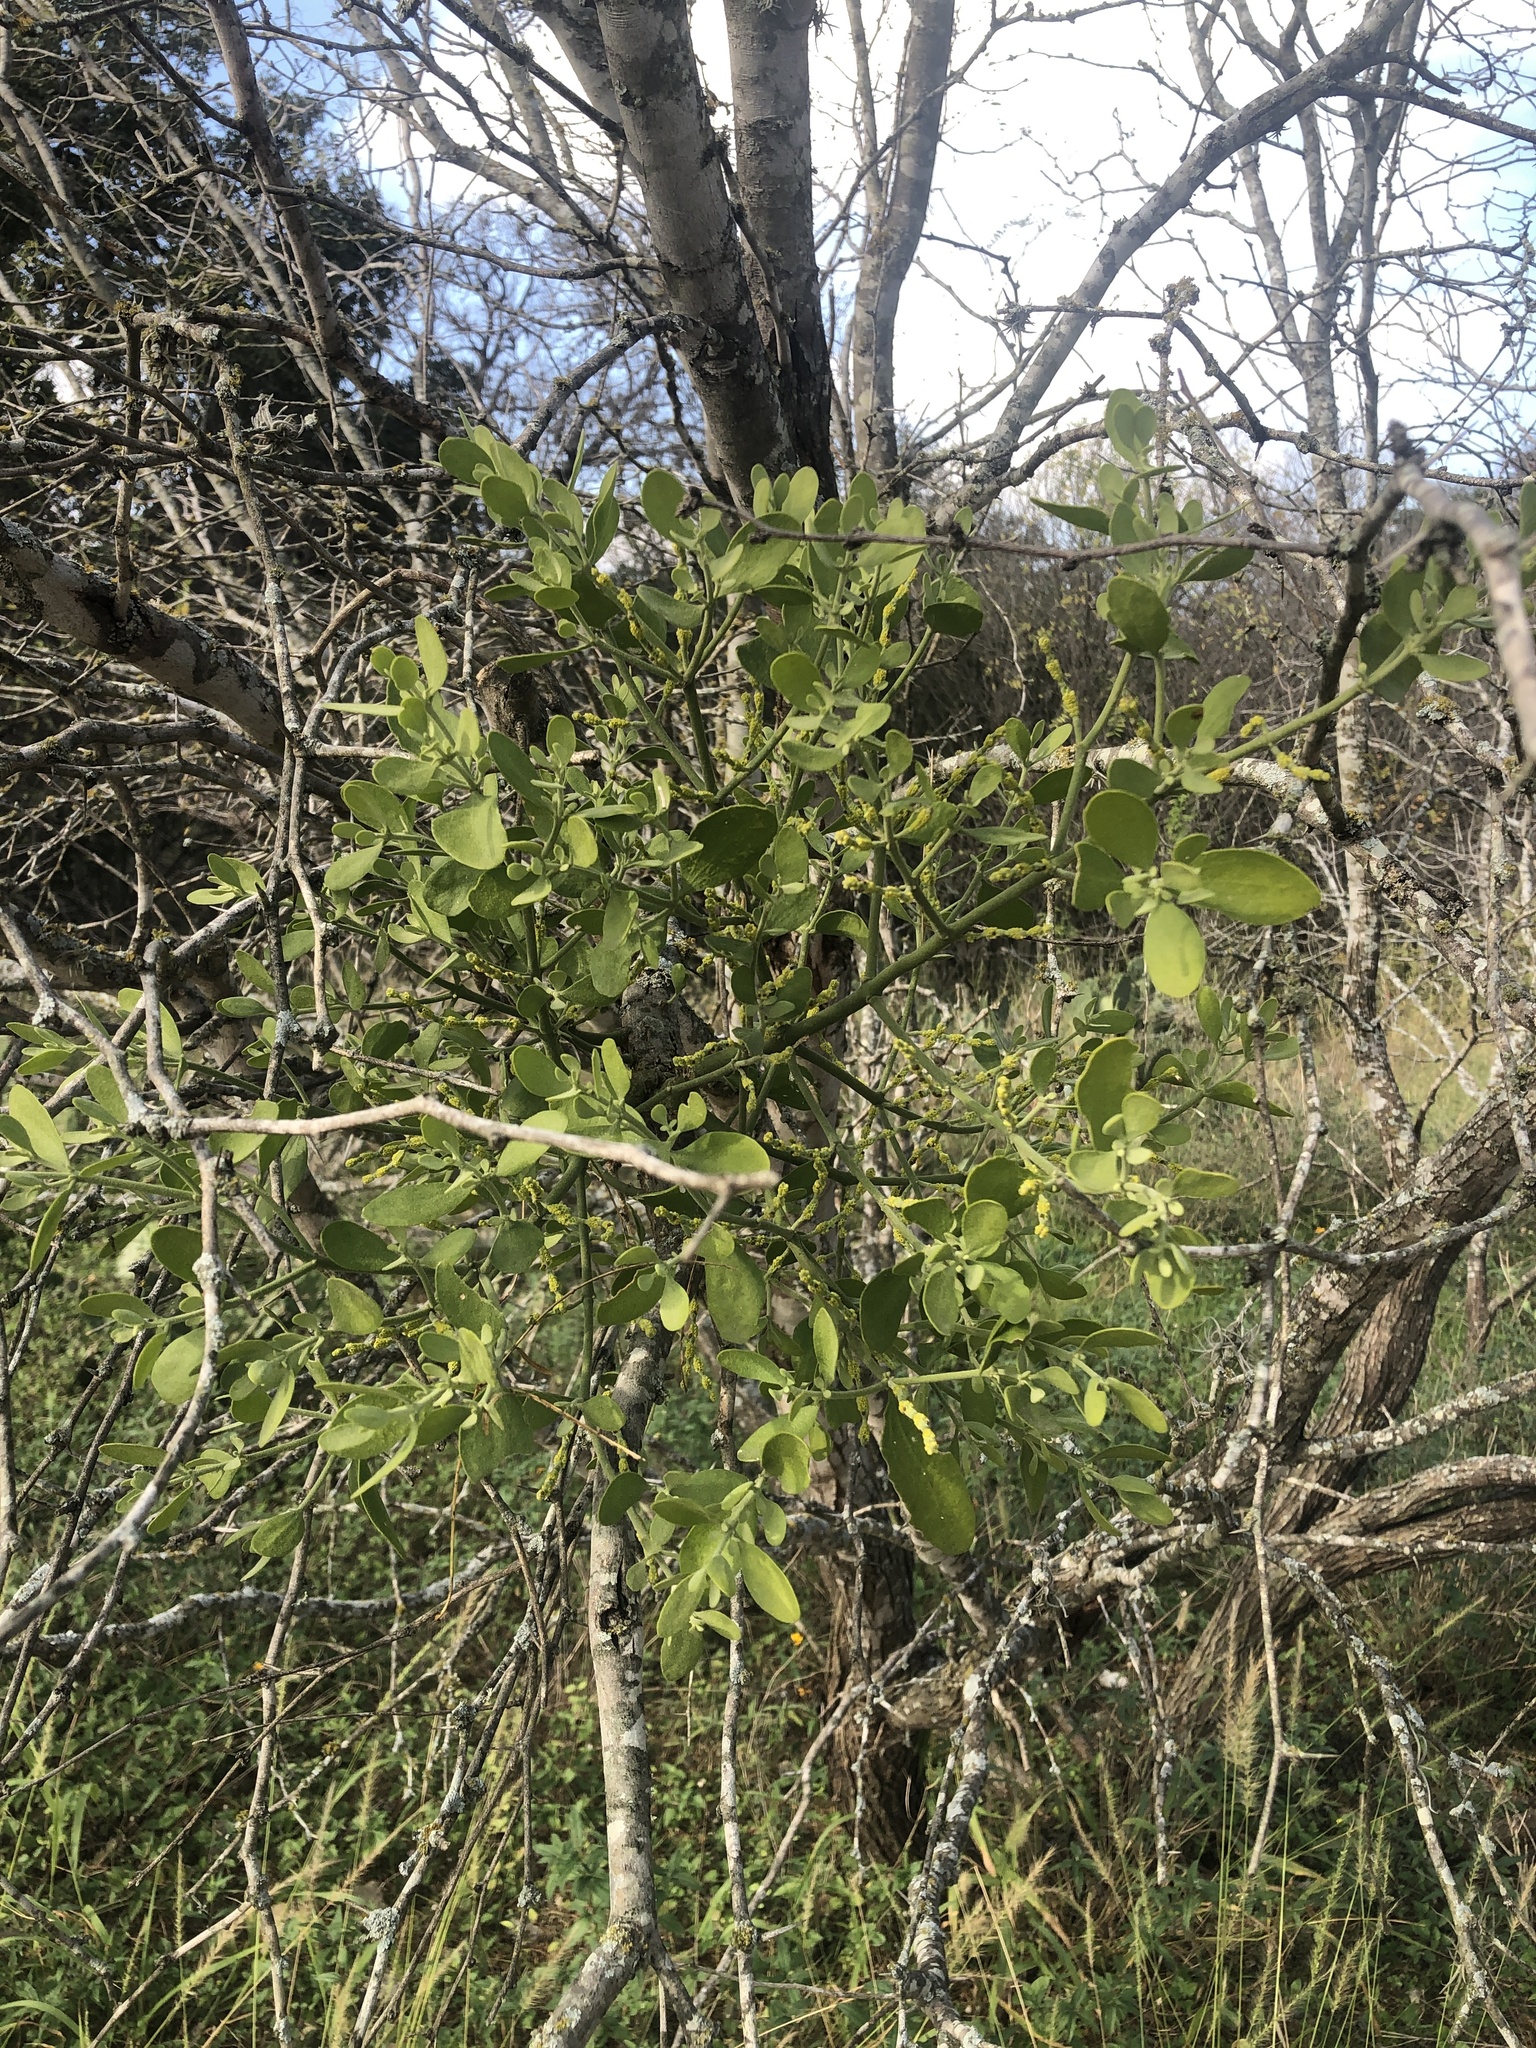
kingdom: Plantae
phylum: Tracheophyta
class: Magnoliopsida
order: Santalales
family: Viscaceae
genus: Phoradendron
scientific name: Phoradendron leucarpum
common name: Pacific mistletoe
